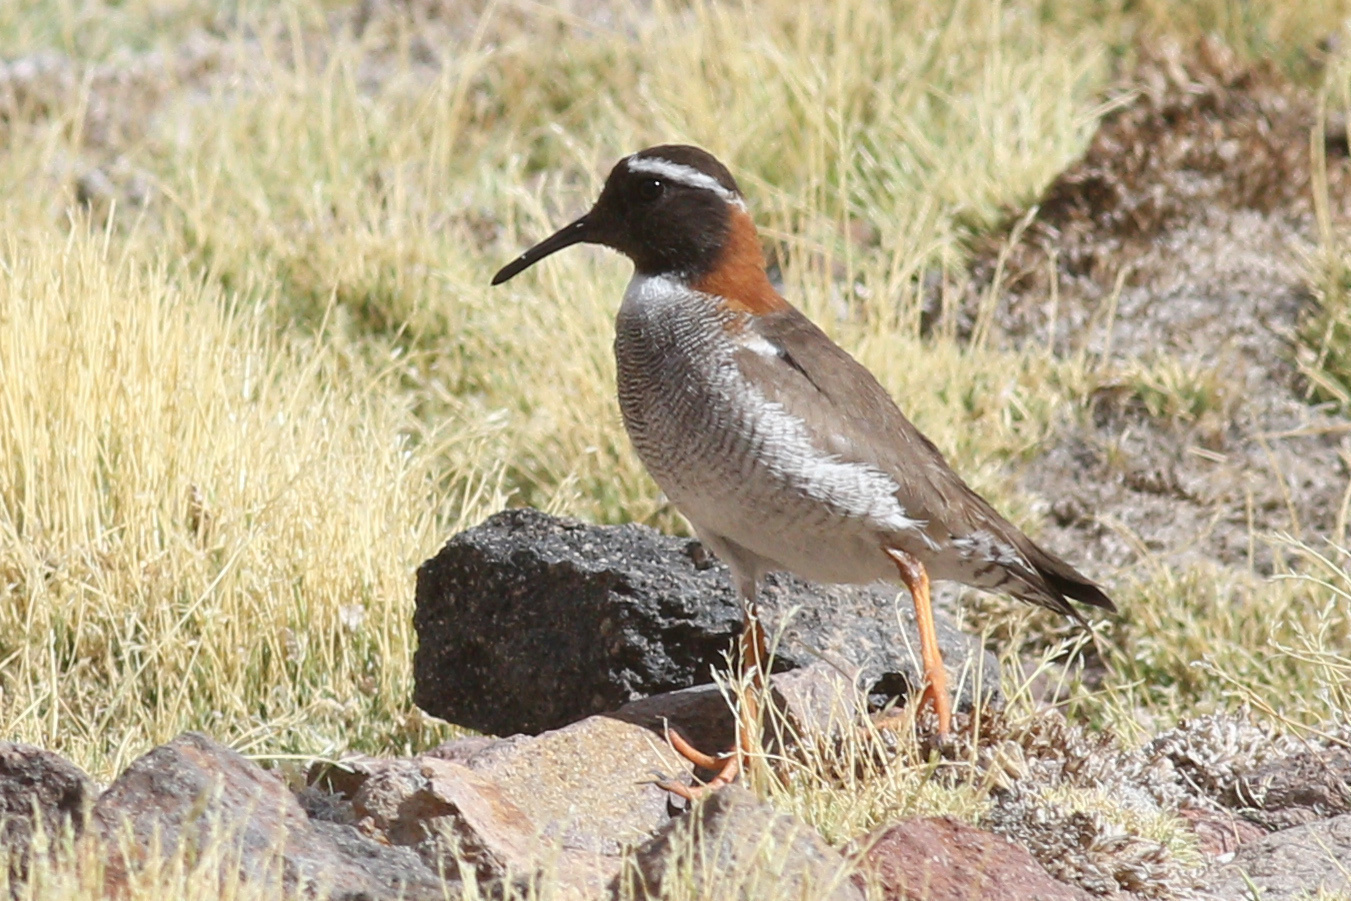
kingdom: Animalia
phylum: Chordata
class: Aves
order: Charadriiformes
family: Charadriidae
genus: Phegornis
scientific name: Phegornis mitchellii
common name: Diademed sandpiper-plover
